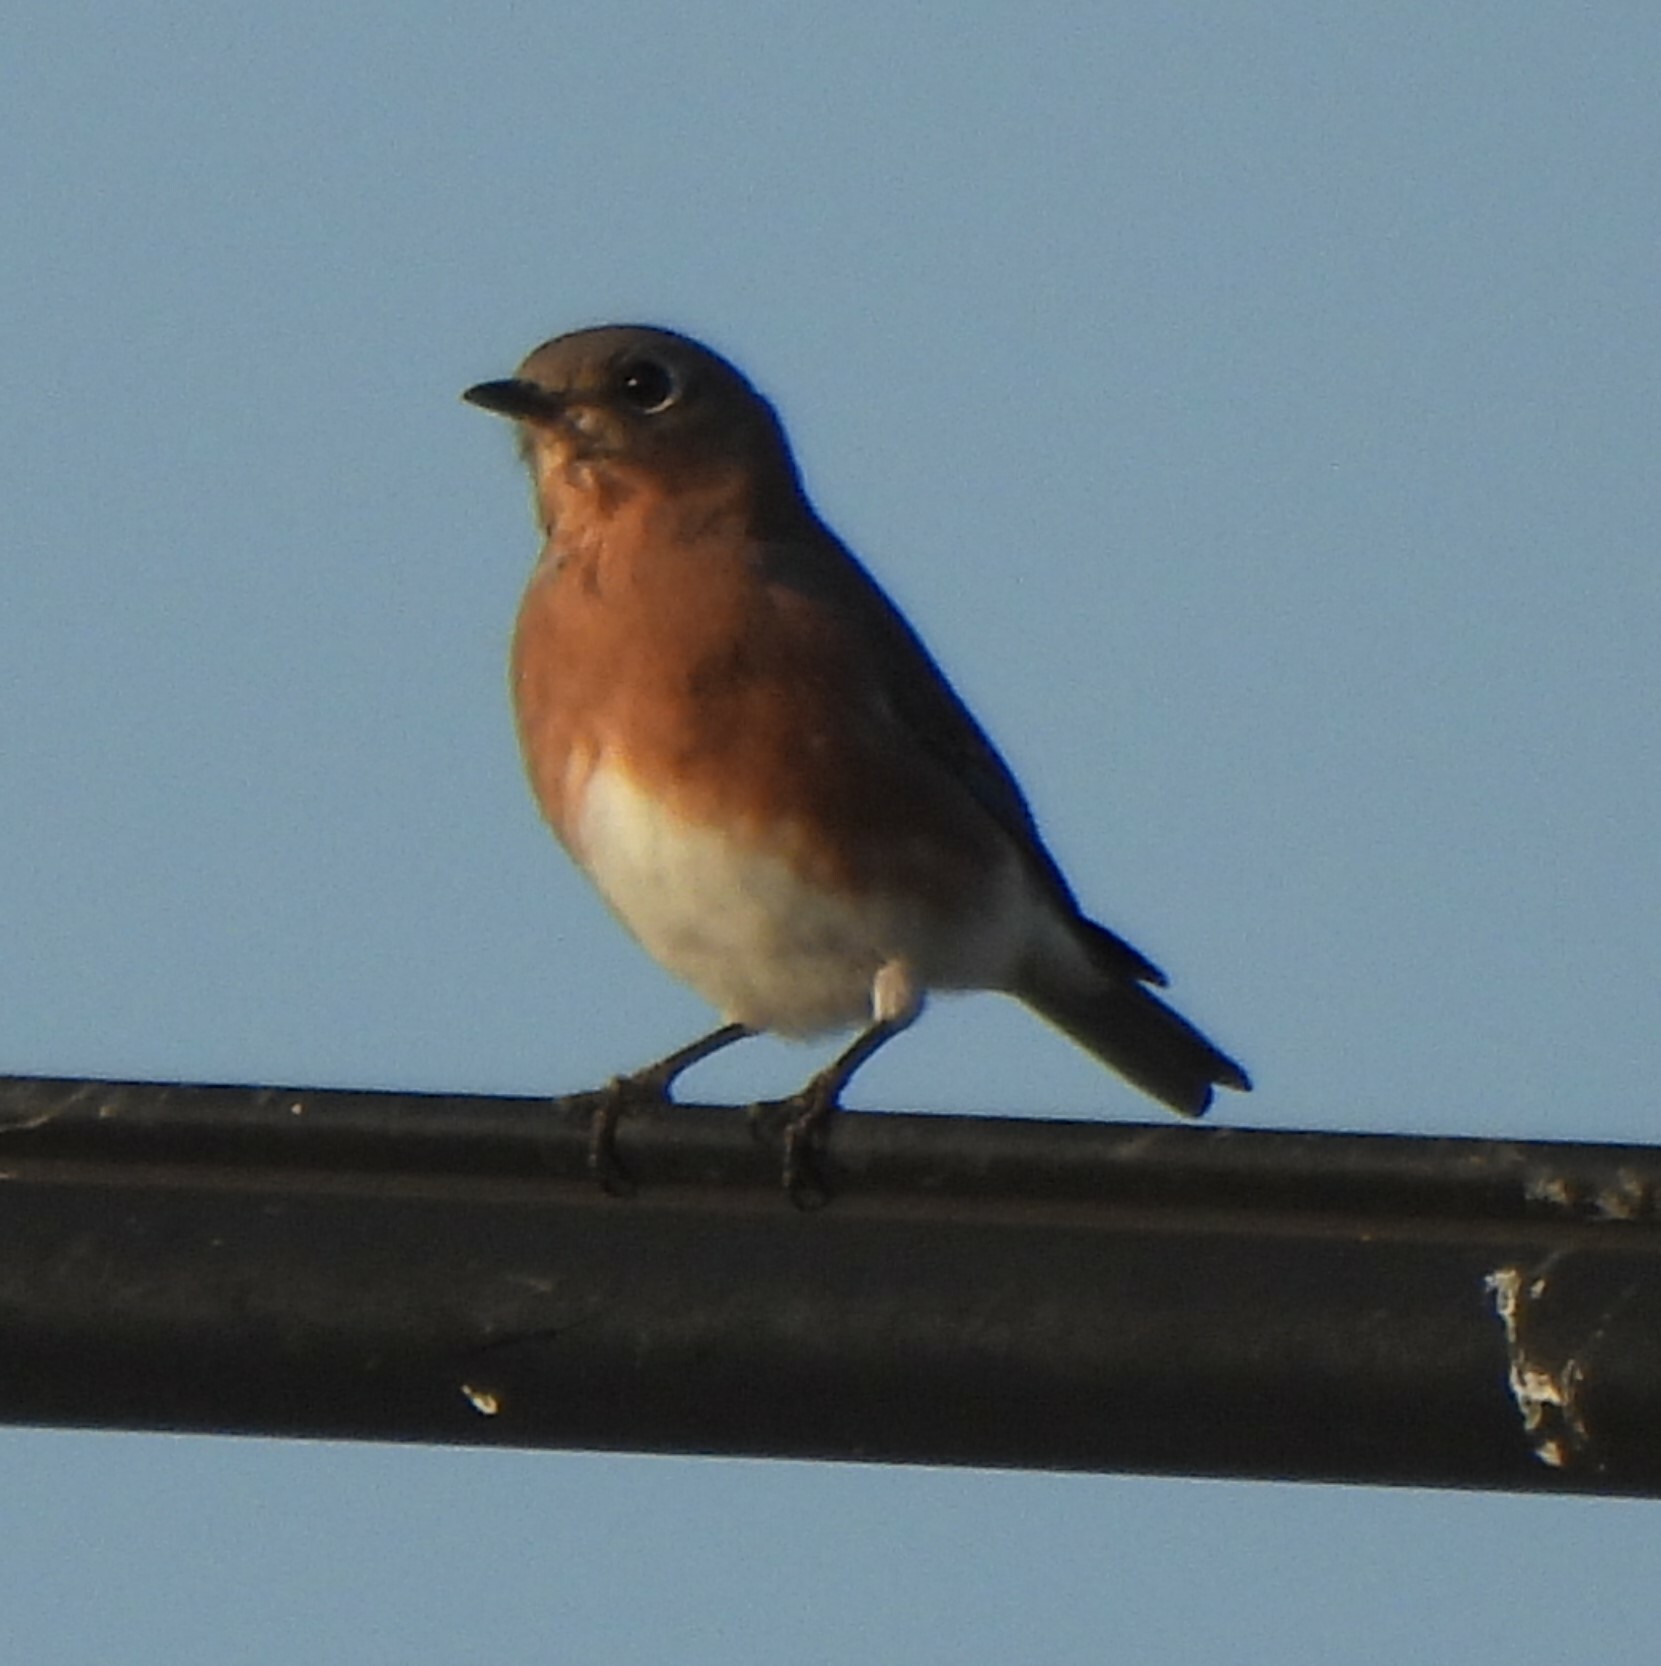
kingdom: Animalia
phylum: Chordata
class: Aves
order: Passeriformes
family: Turdidae
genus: Sialia
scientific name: Sialia sialis
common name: Eastern bluebird
